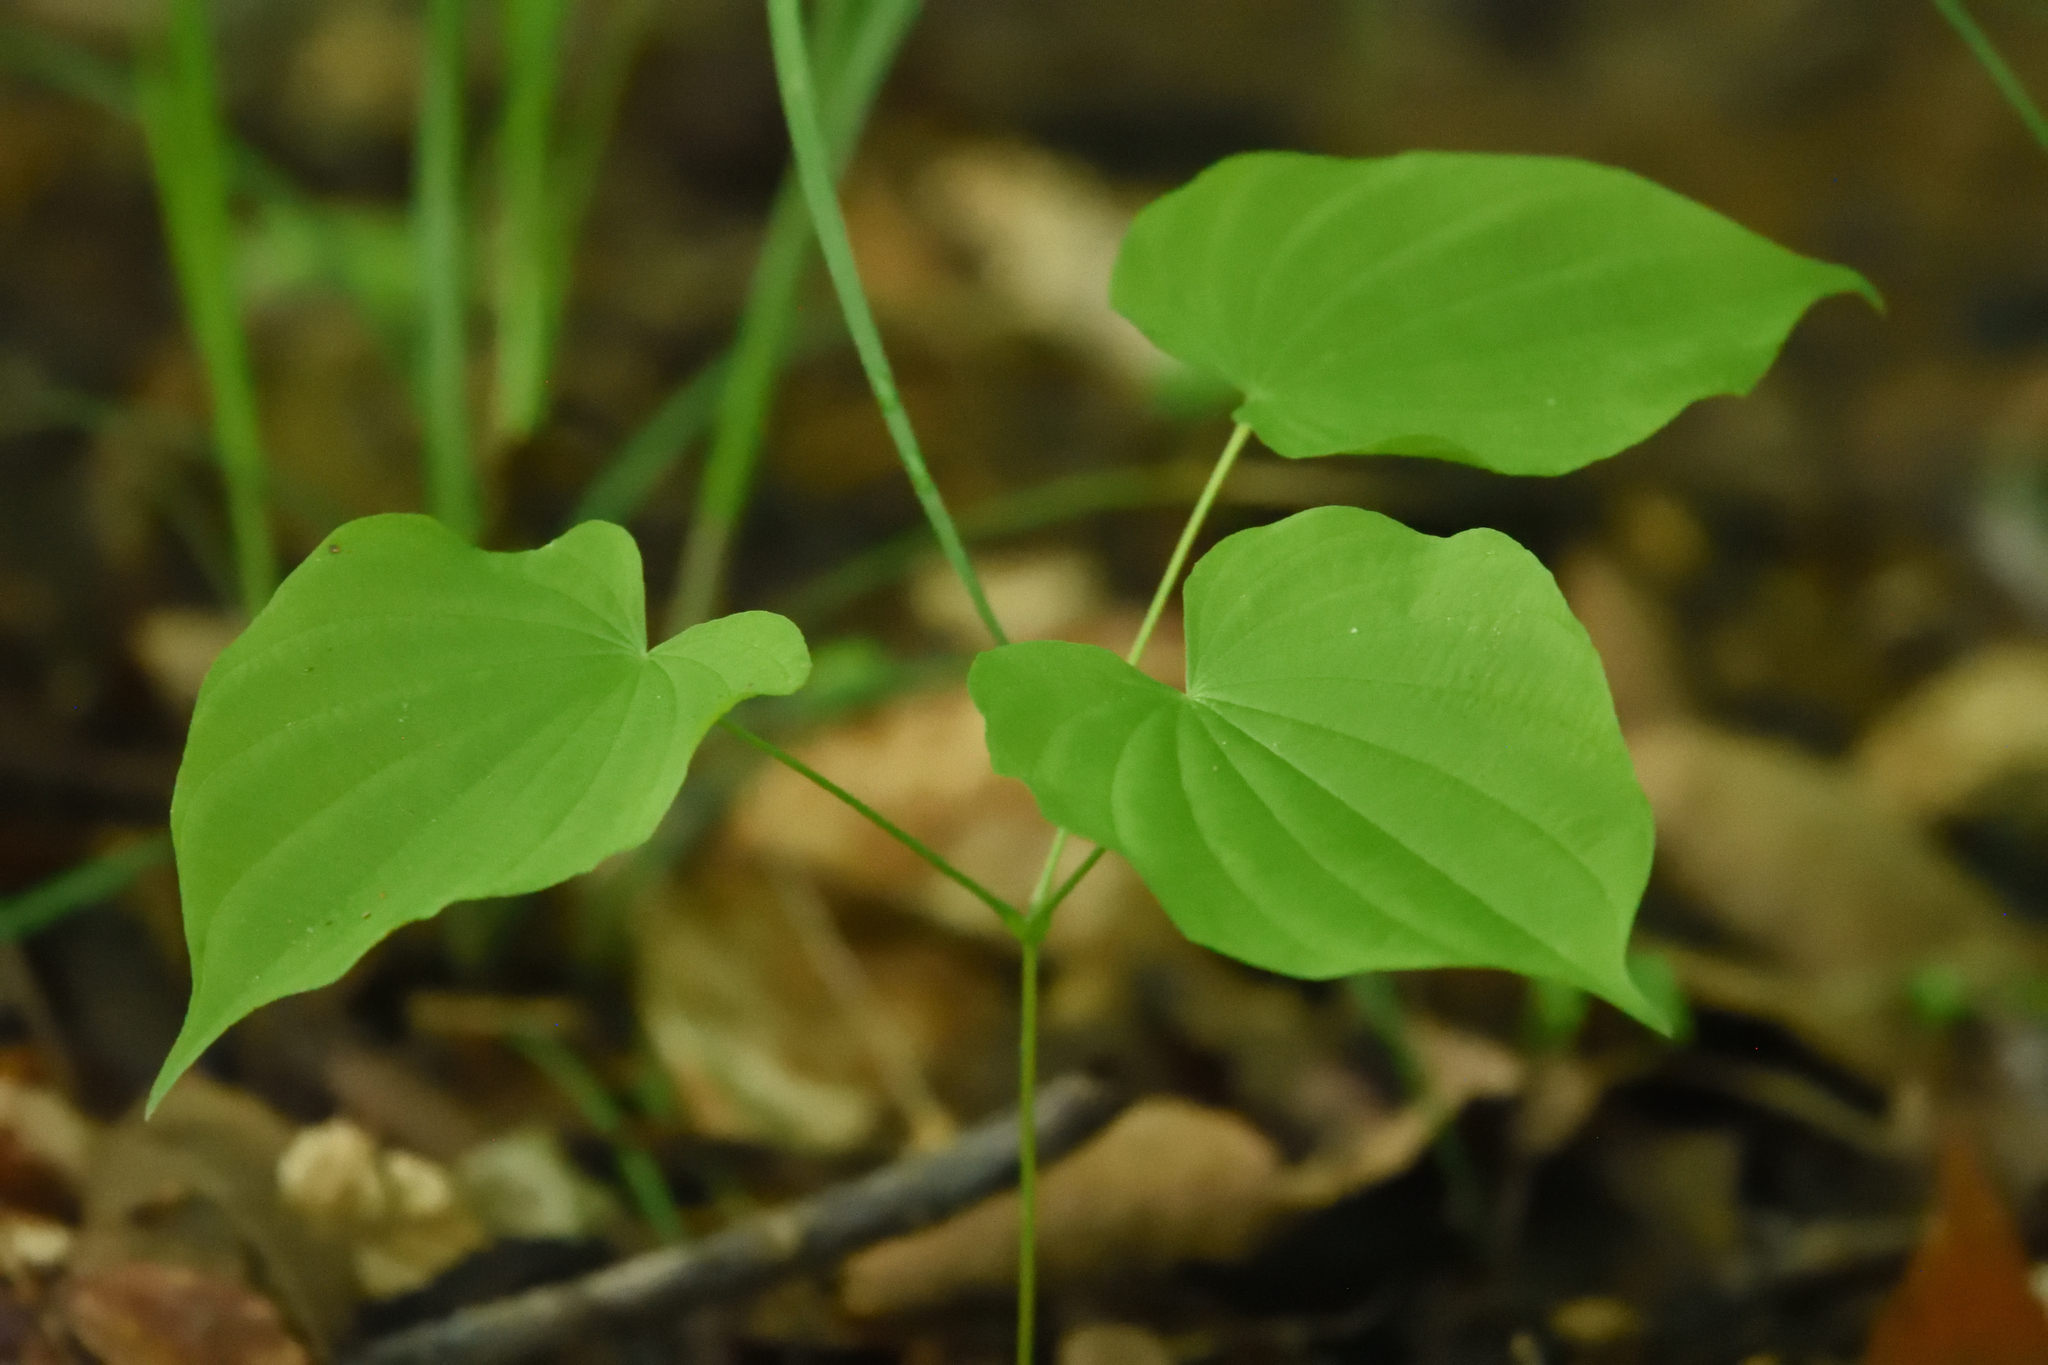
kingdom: Plantae
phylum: Tracheophyta
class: Liliopsida
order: Dioscoreales
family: Dioscoreaceae
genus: Dioscorea
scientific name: Dioscorea villosa
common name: Wild yam
